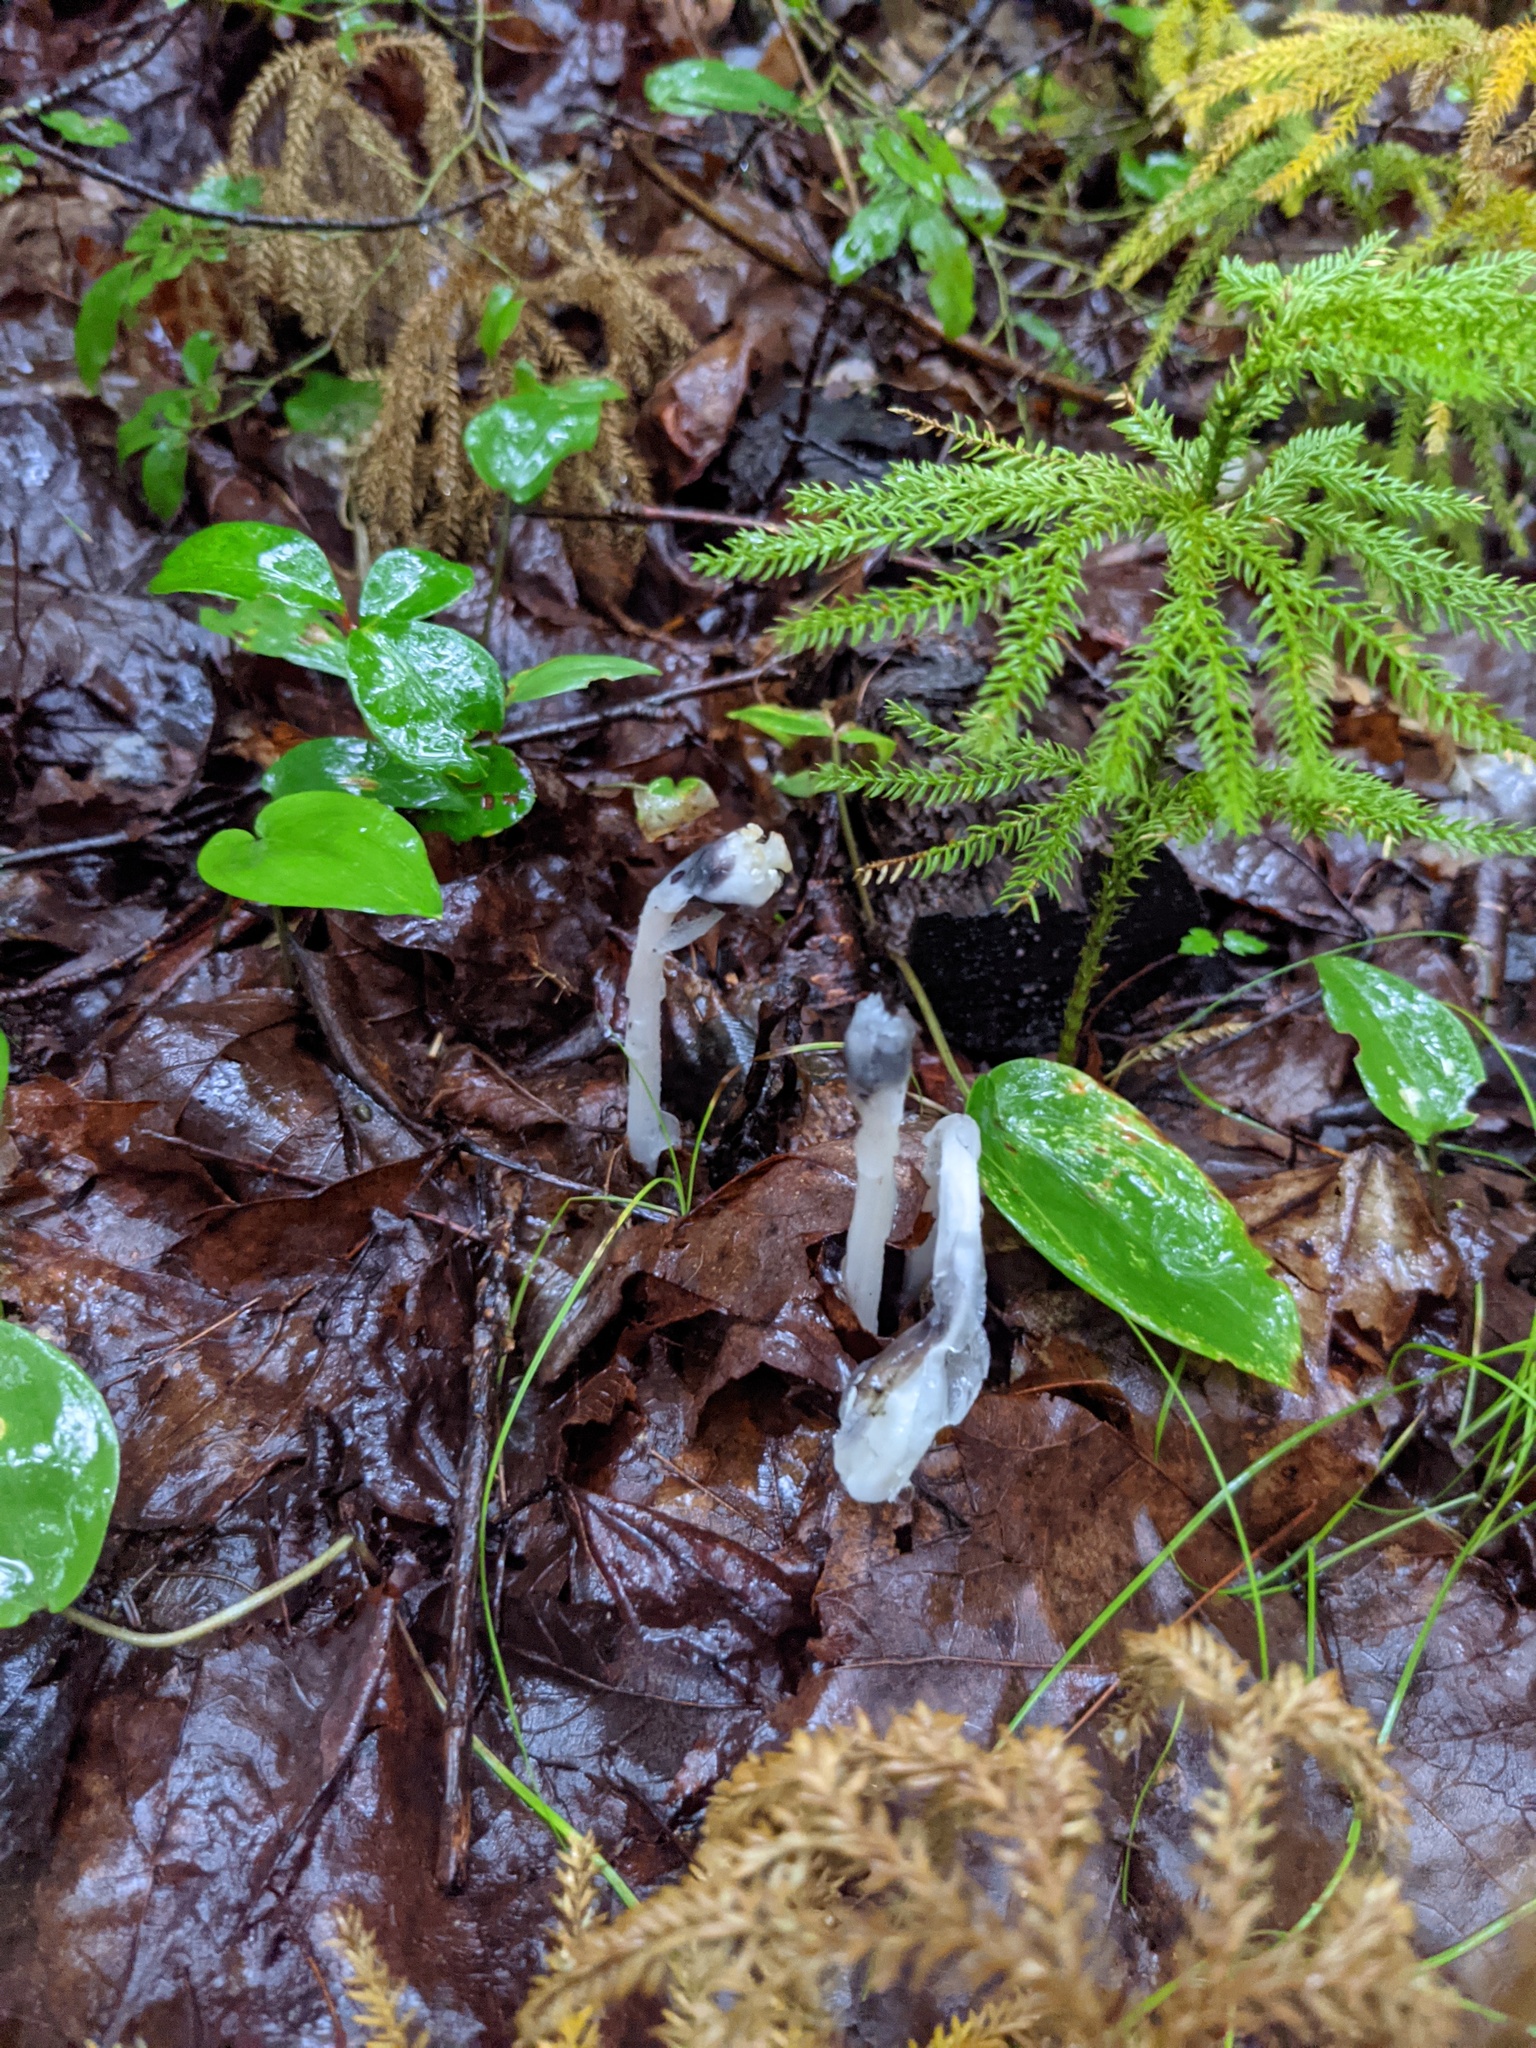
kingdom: Plantae
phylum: Tracheophyta
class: Magnoliopsida
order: Ericales
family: Ericaceae
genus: Monotropa
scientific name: Monotropa uniflora
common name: Convulsion root
